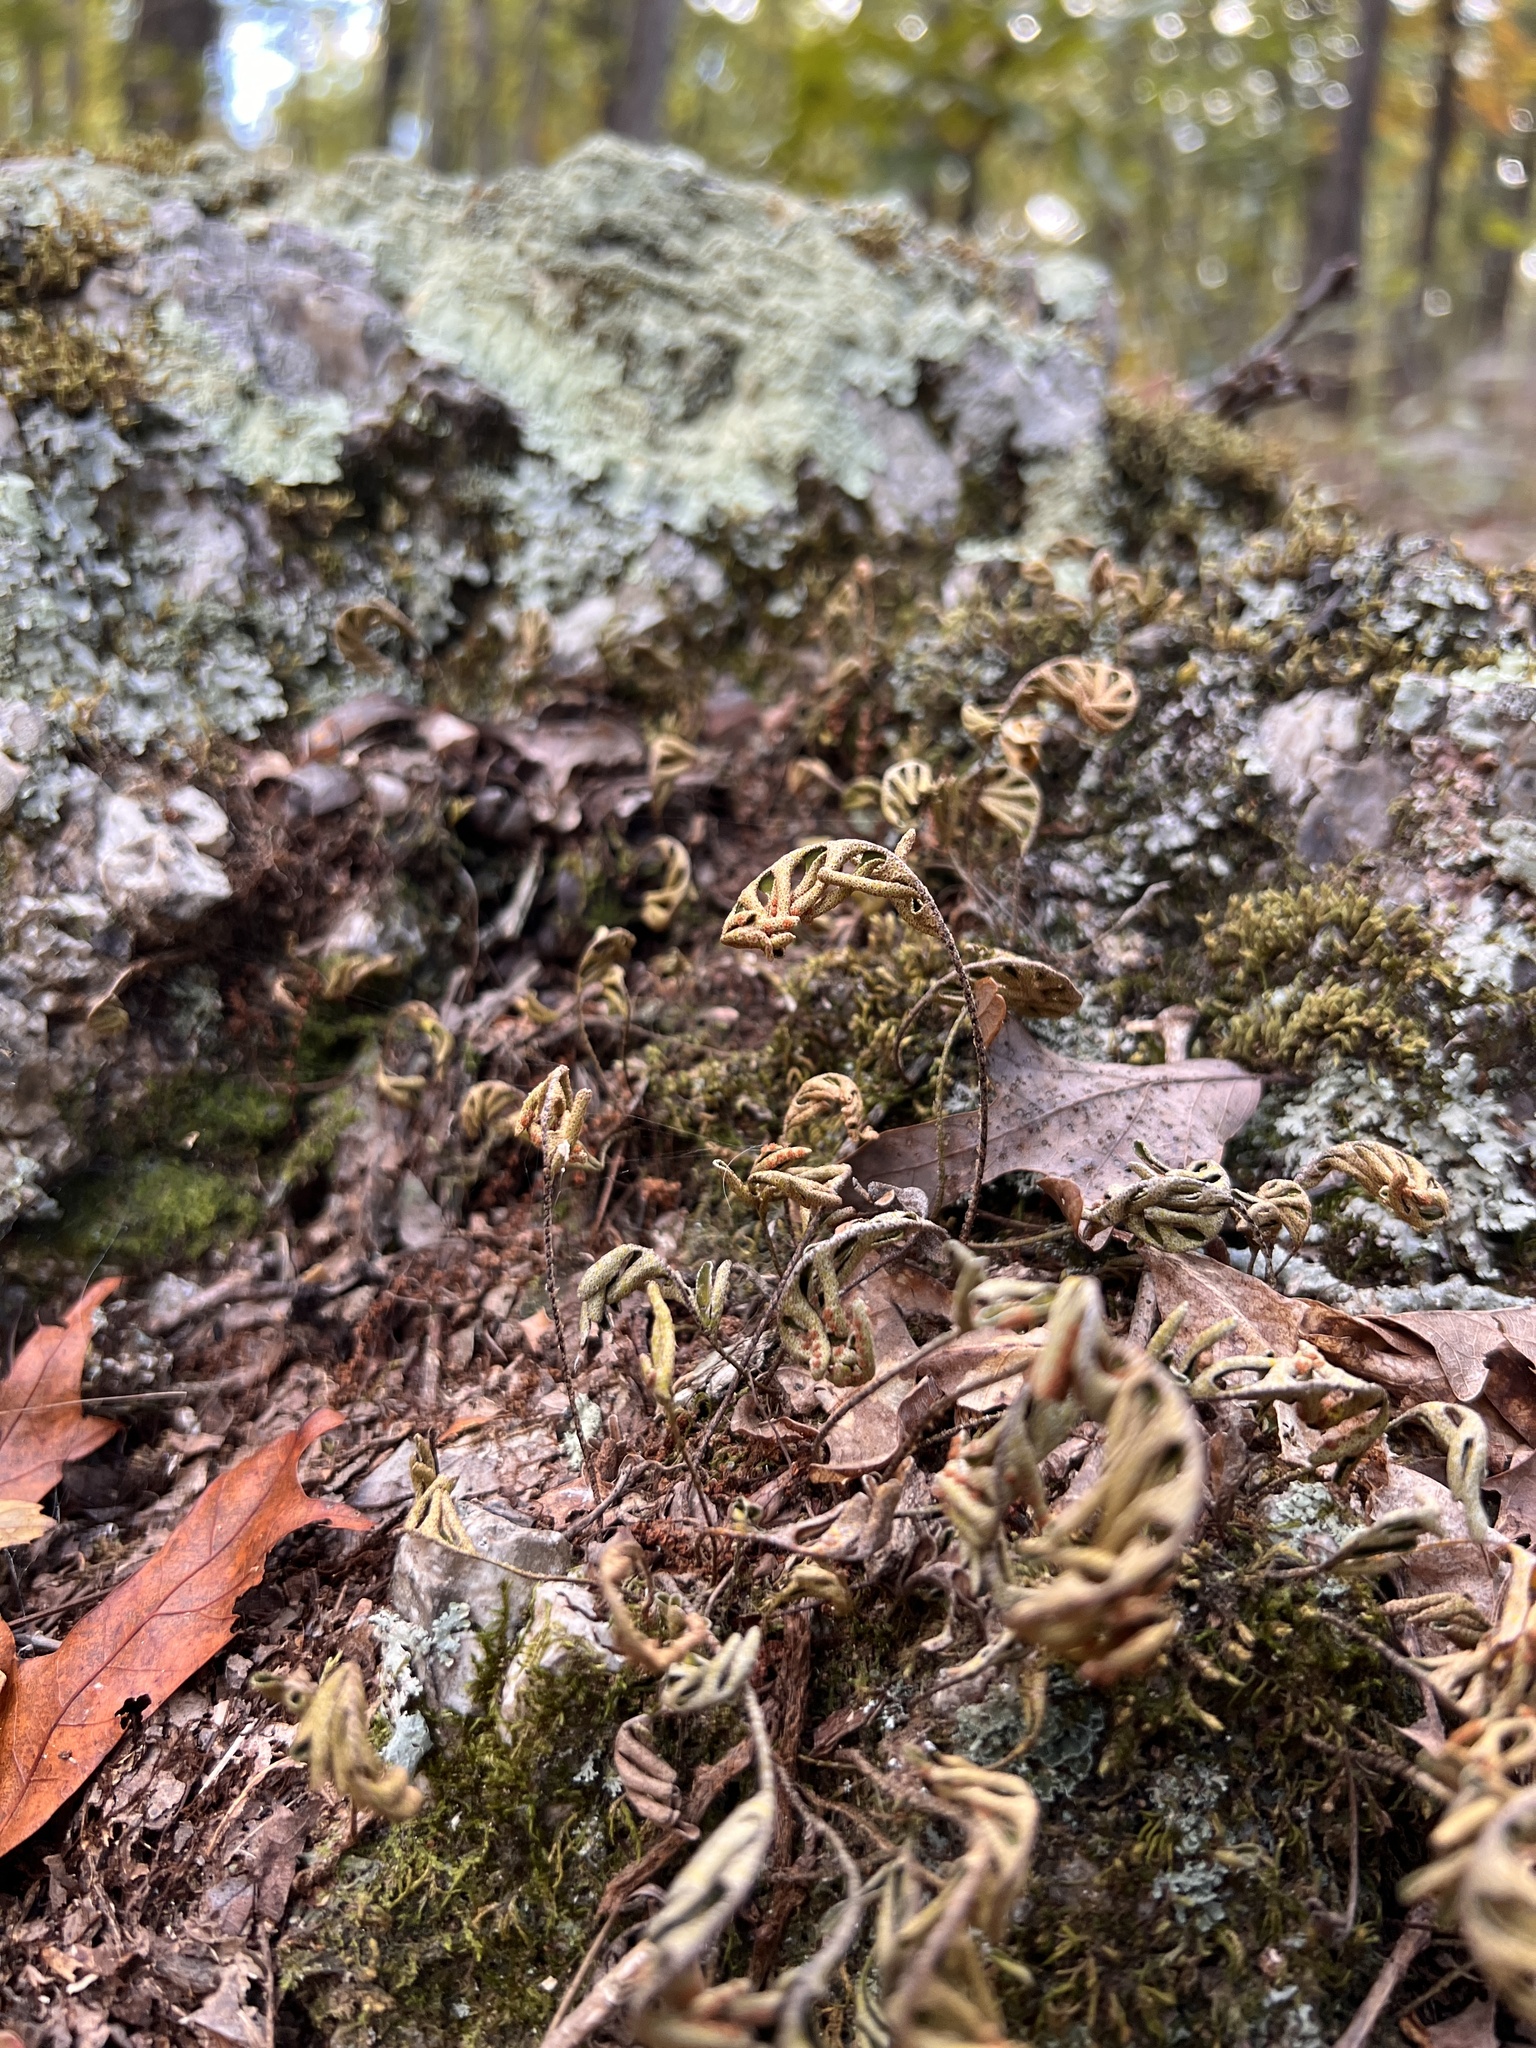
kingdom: Plantae
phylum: Tracheophyta
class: Polypodiopsida
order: Polypodiales
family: Polypodiaceae
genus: Pleopeltis
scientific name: Pleopeltis michauxiana
